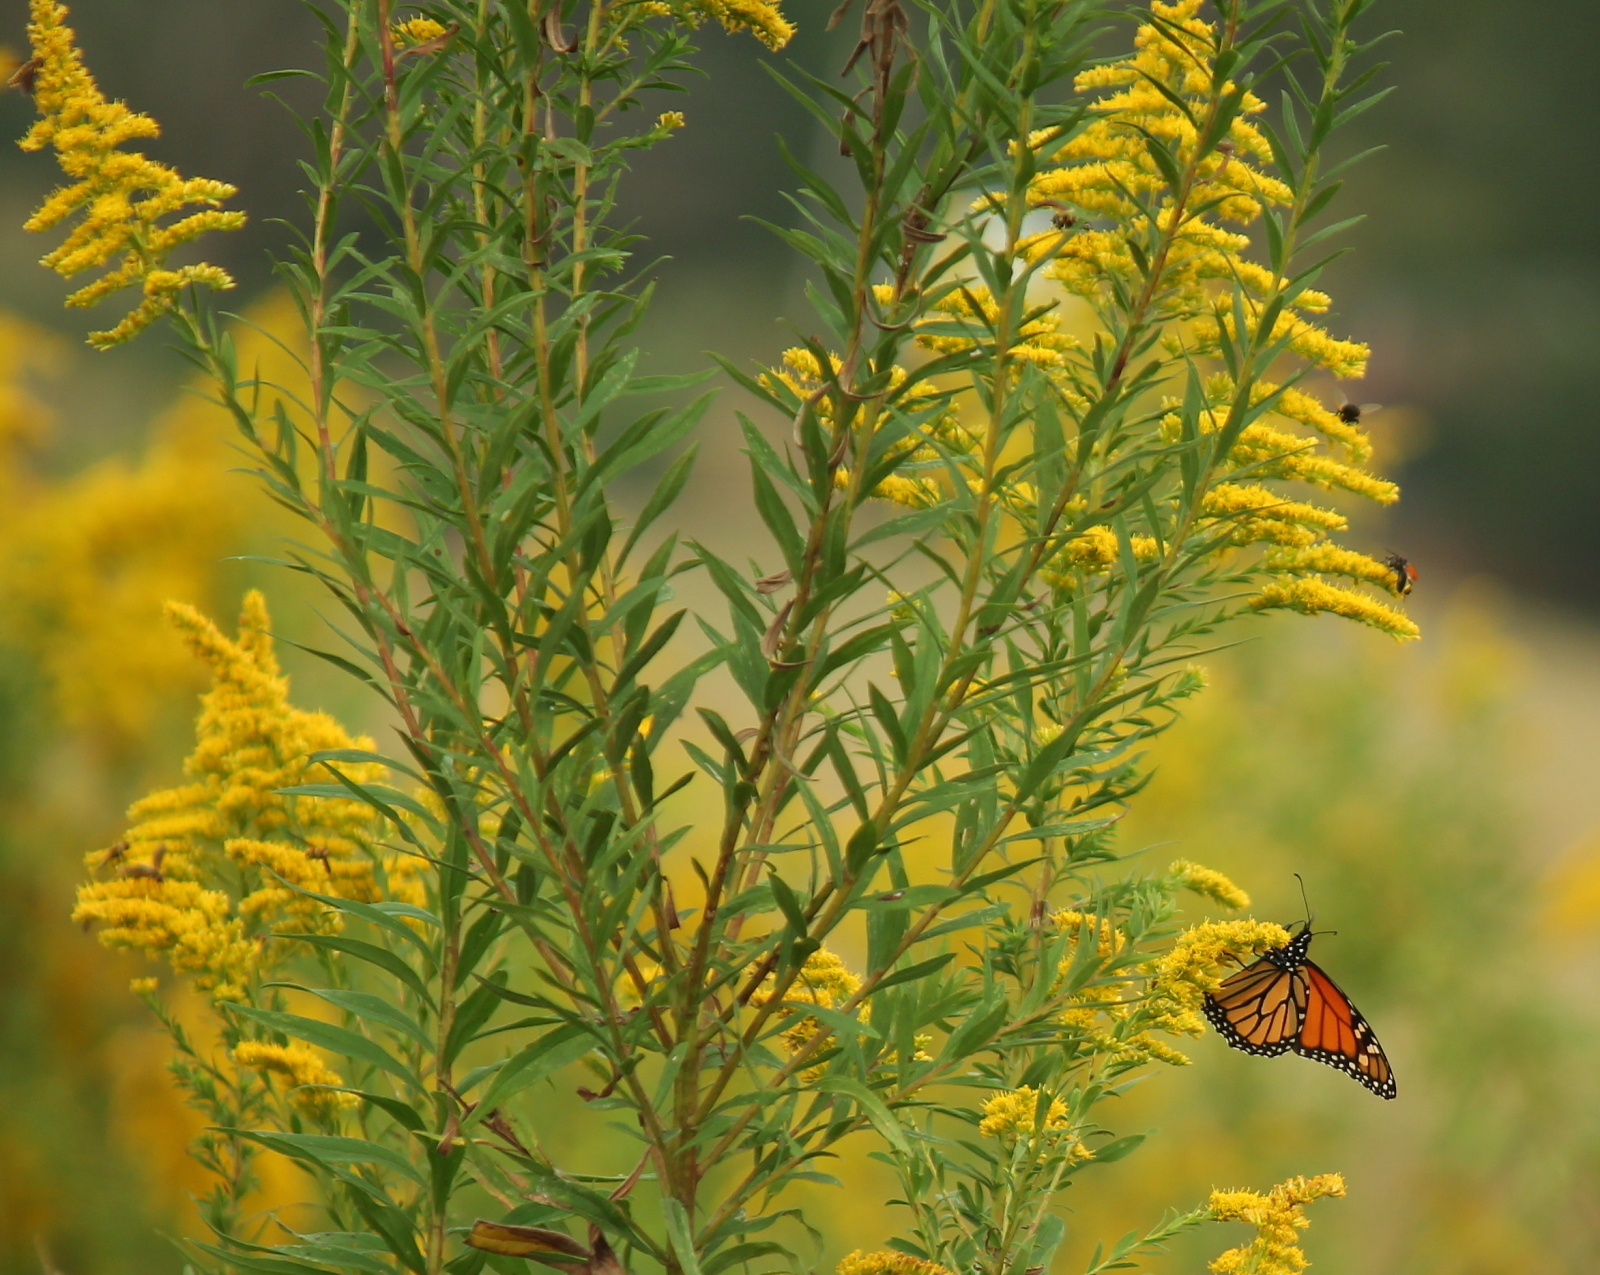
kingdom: Animalia
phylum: Arthropoda
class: Insecta
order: Lepidoptera
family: Nymphalidae
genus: Danaus
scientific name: Danaus plexippus
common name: Monarch
